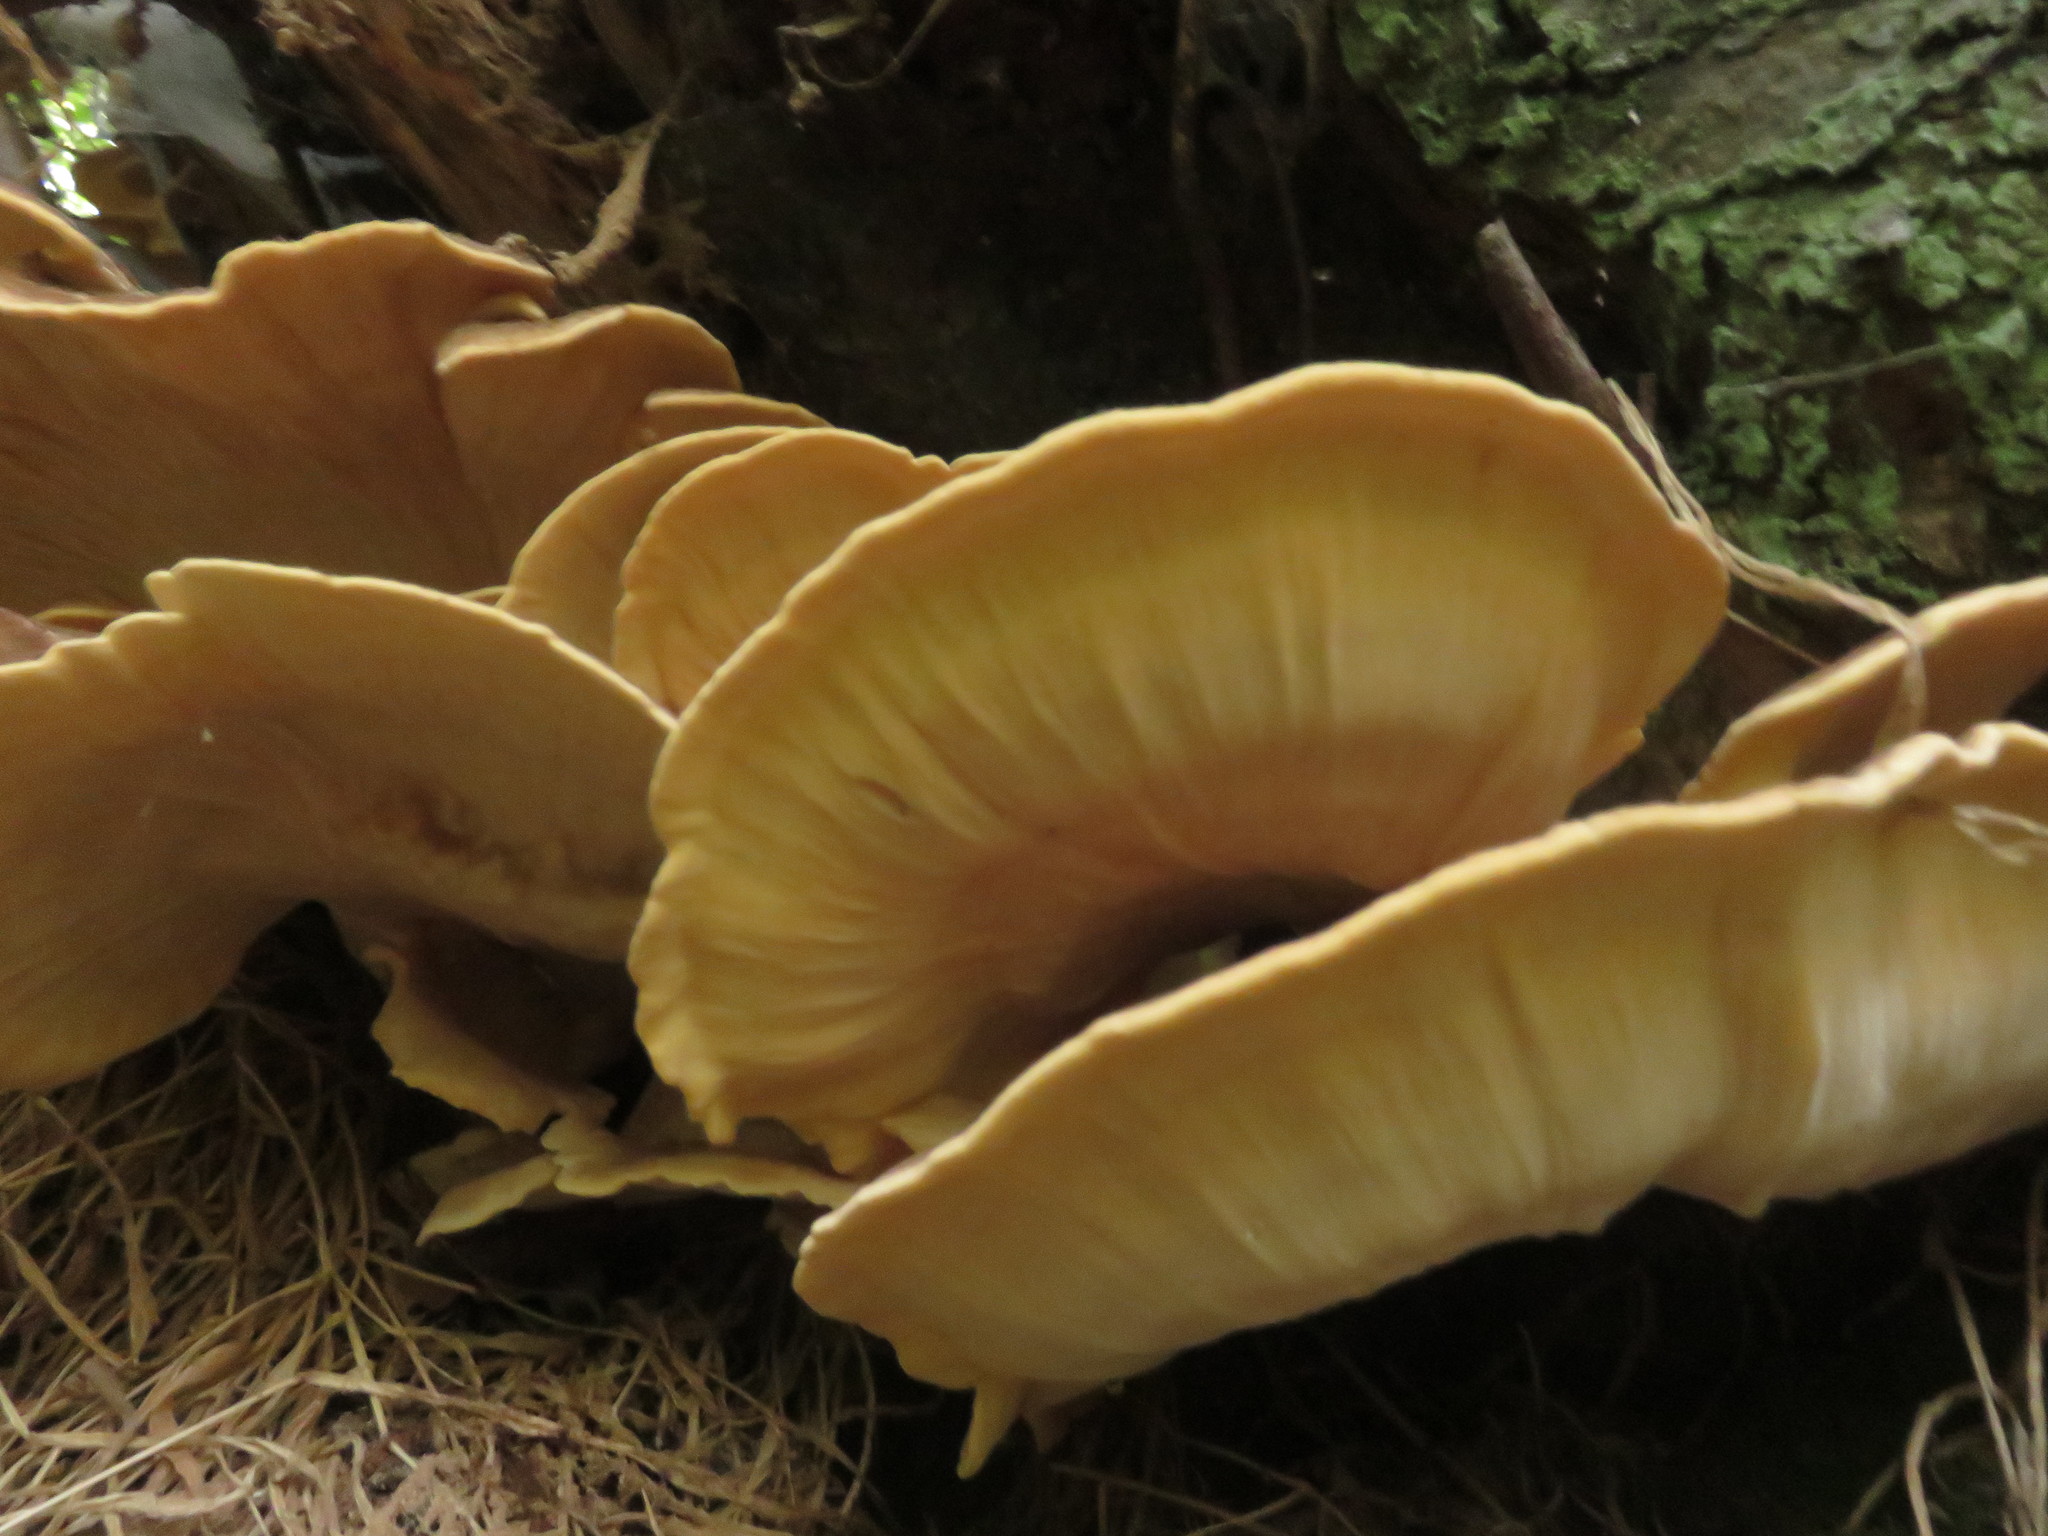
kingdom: Fungi
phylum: Basidiomycota
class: Agaricomycetes
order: Polyporales
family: Meripilaceae
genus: Meripilus
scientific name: Meripilus giganteus
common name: Giant polypore
